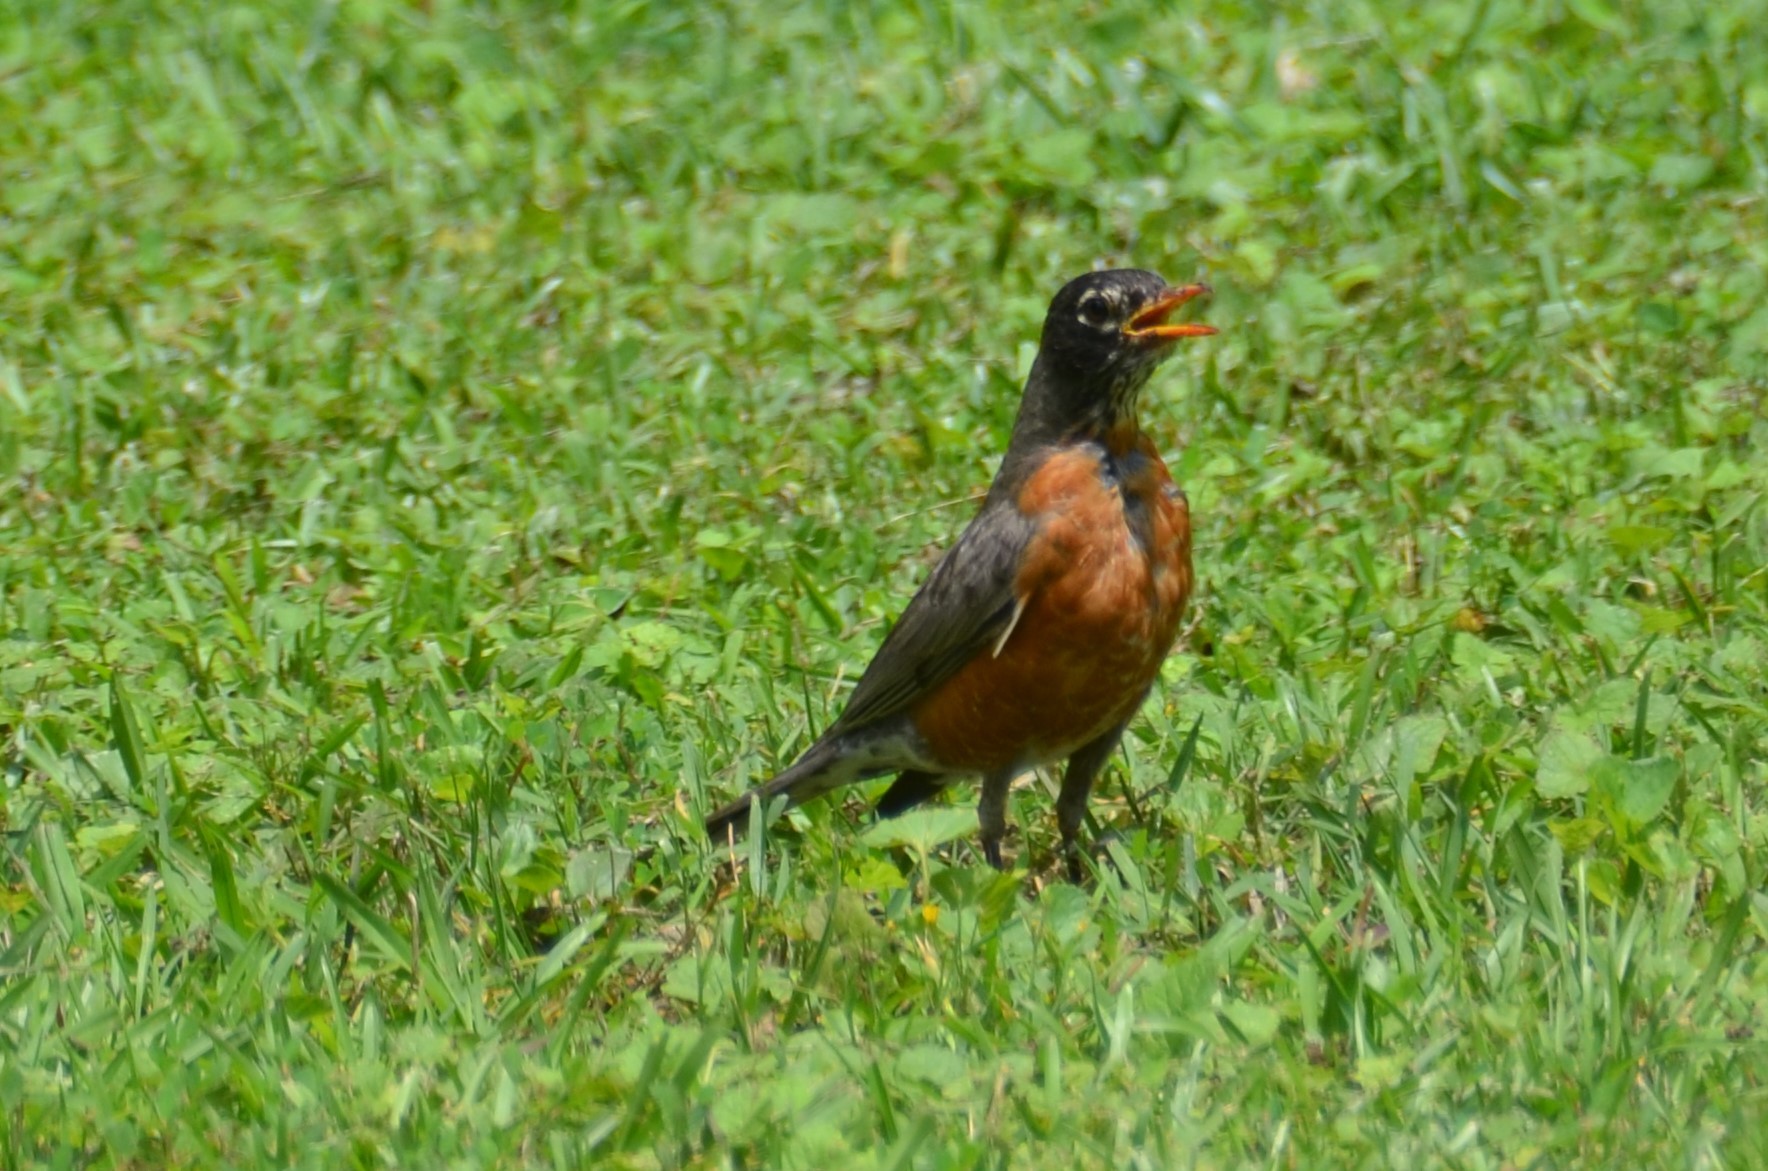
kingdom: Animalia
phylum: Chordata
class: Aves
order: Passeriformes
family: Turdidae
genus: Turdus
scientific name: Turdus migratorius
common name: American robin
